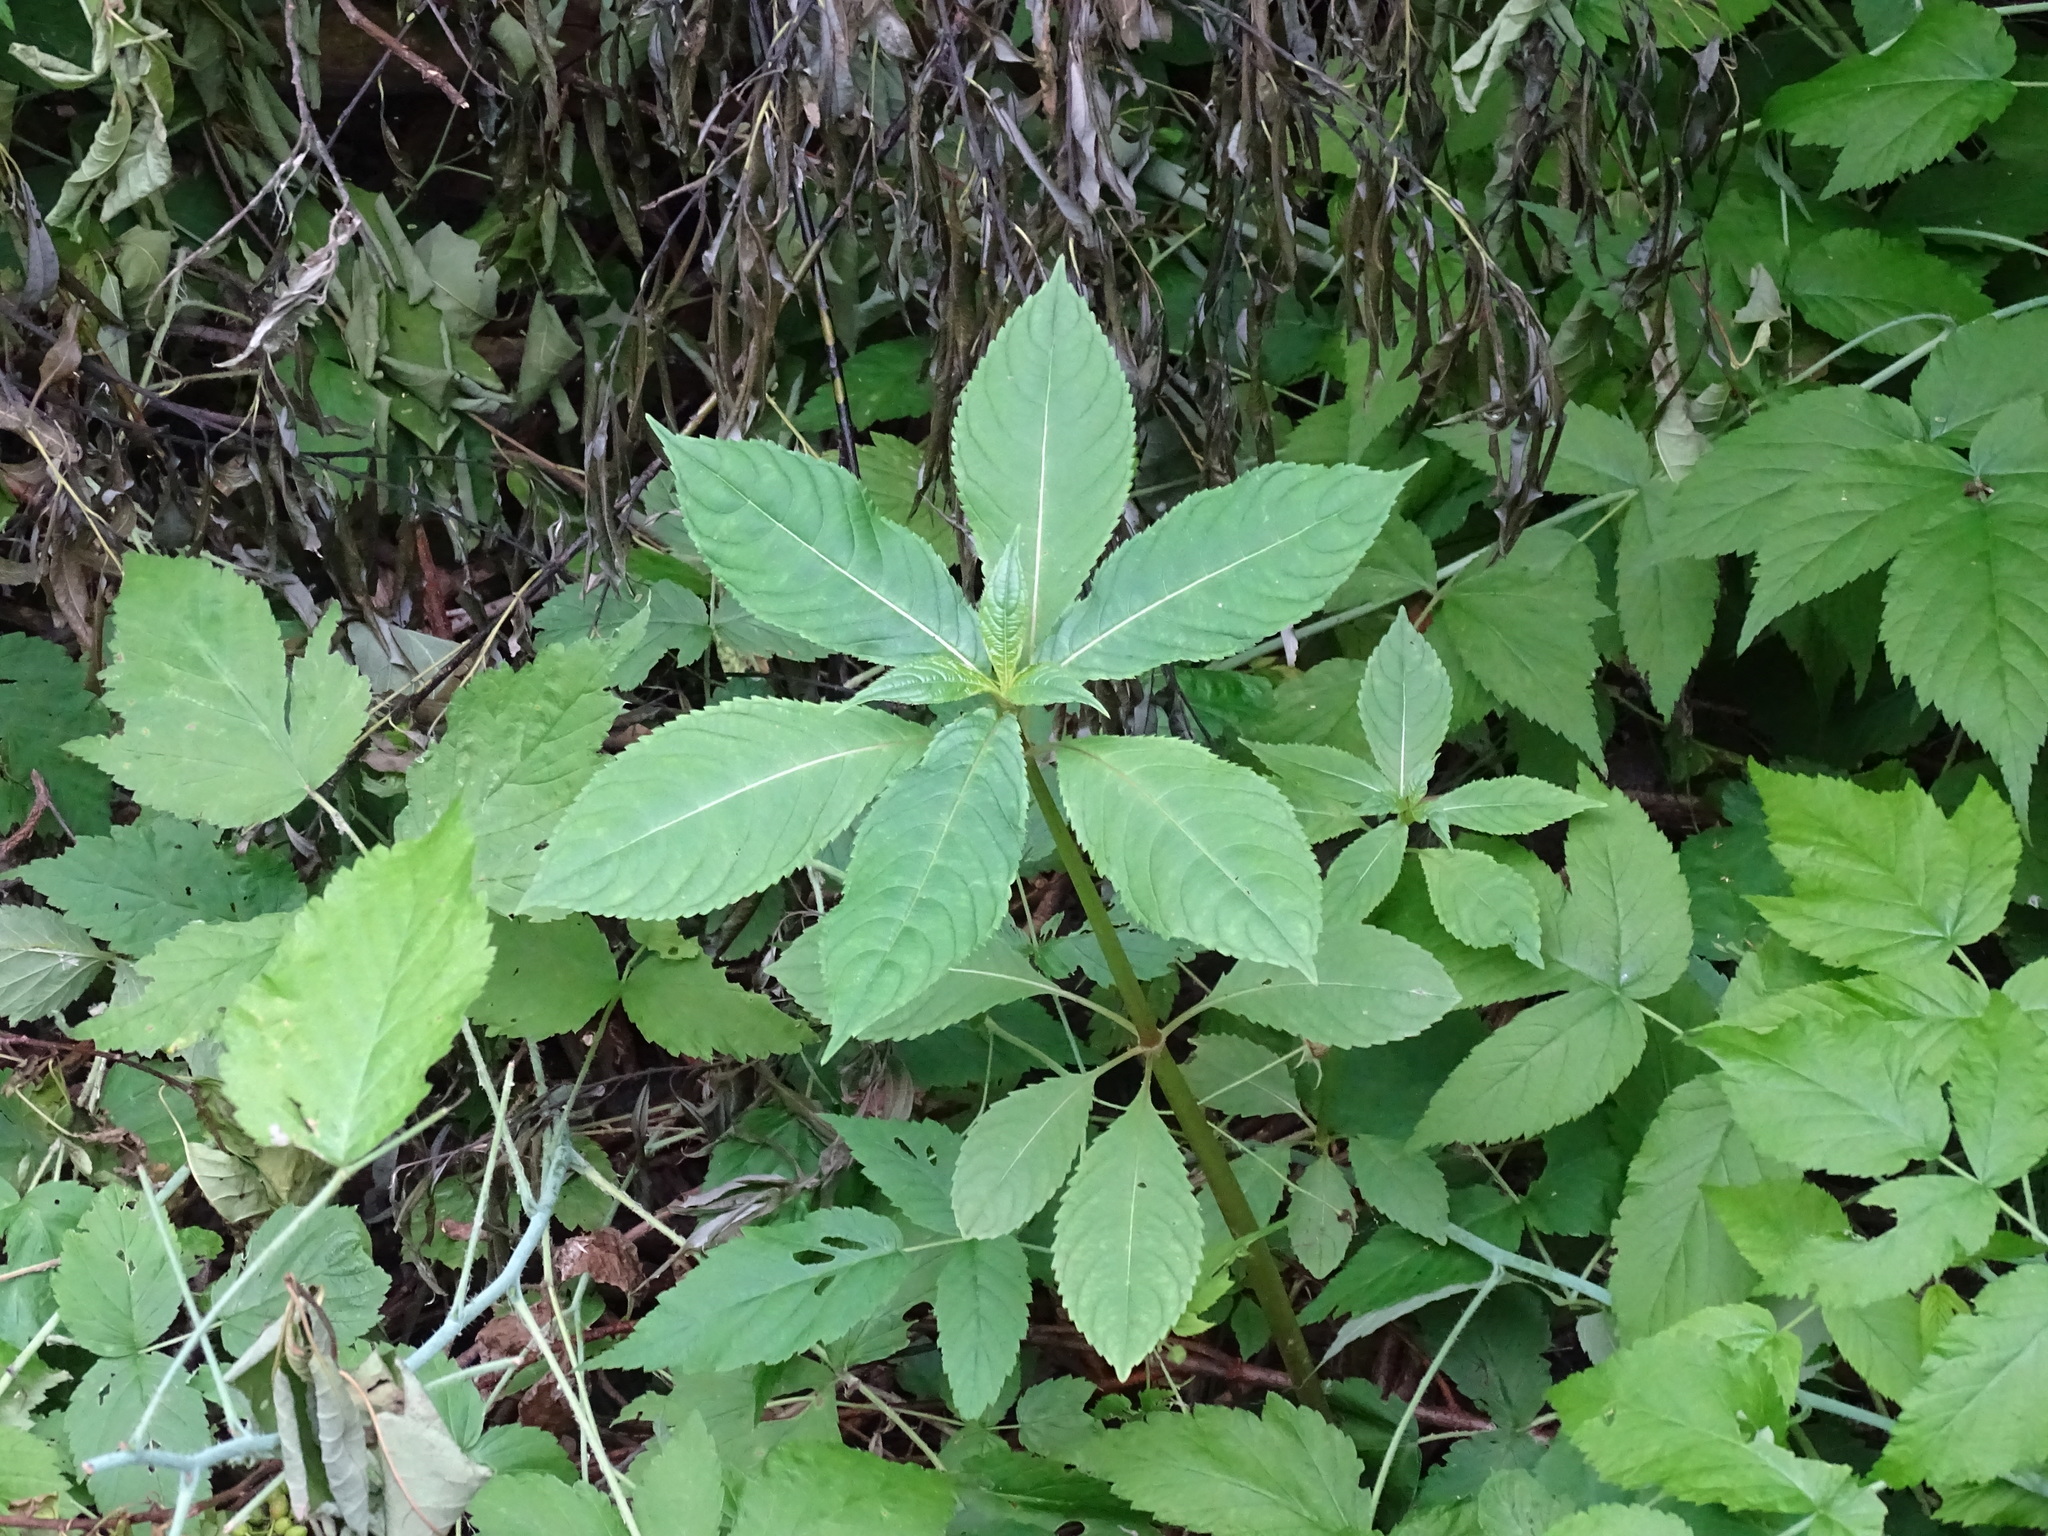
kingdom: Plantae
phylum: Tracheophyta
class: Magnoliopsida
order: Ericales
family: Balsaminaceae
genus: Impatiens
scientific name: Impatiens glandulifera
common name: Himalayan balsam
